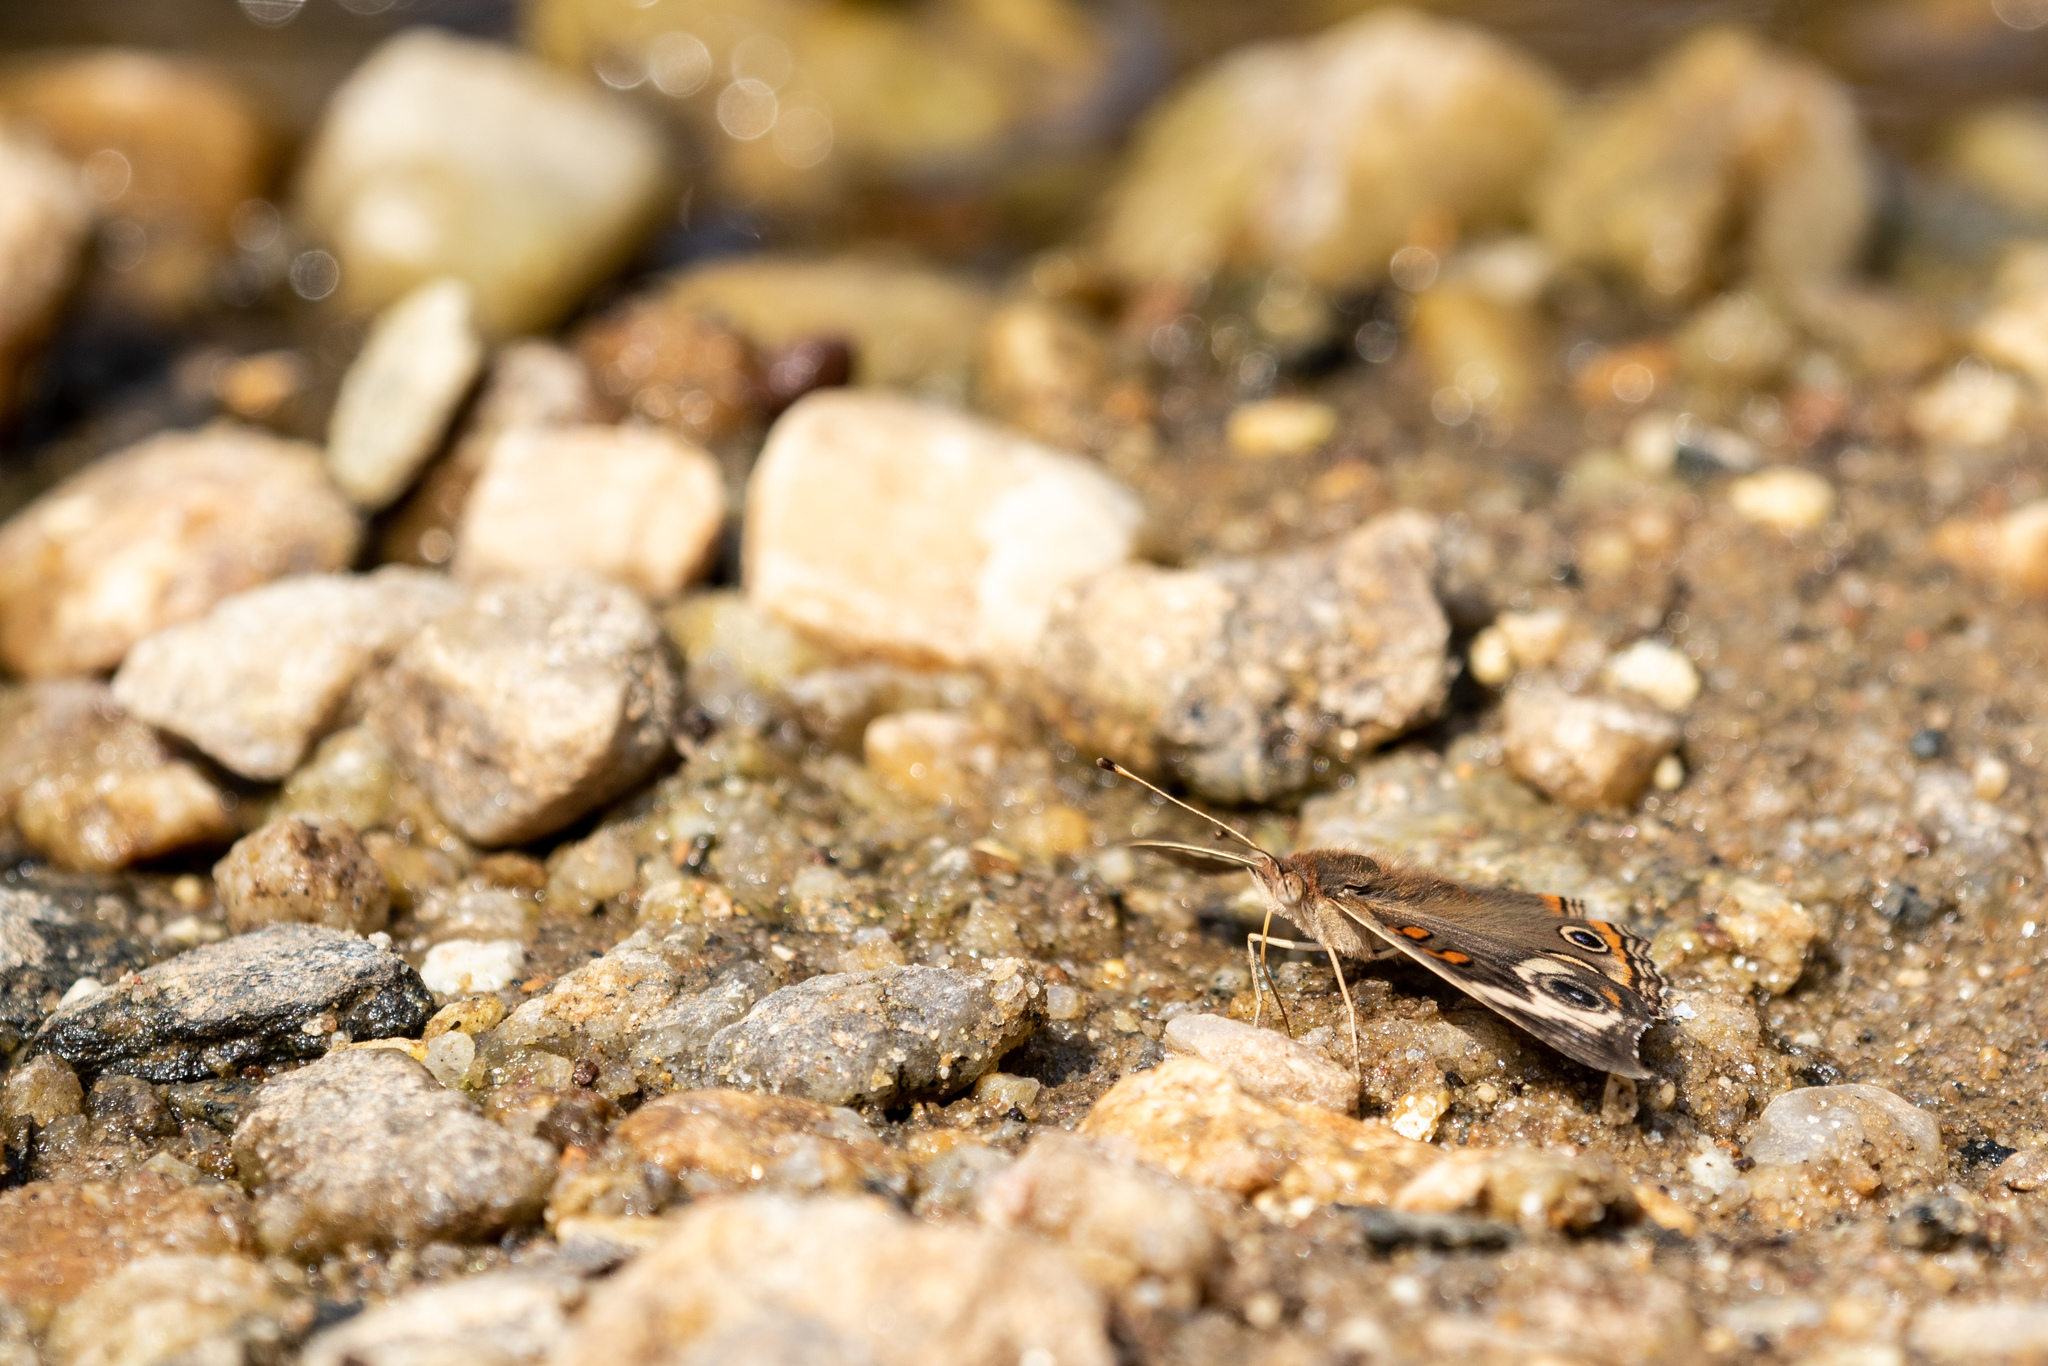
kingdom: Animalia
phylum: Arthropoda
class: Insecta
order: Lepidoptera
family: Nymphalidae
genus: Junonia
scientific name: Junonia coenia
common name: Common buckeye
